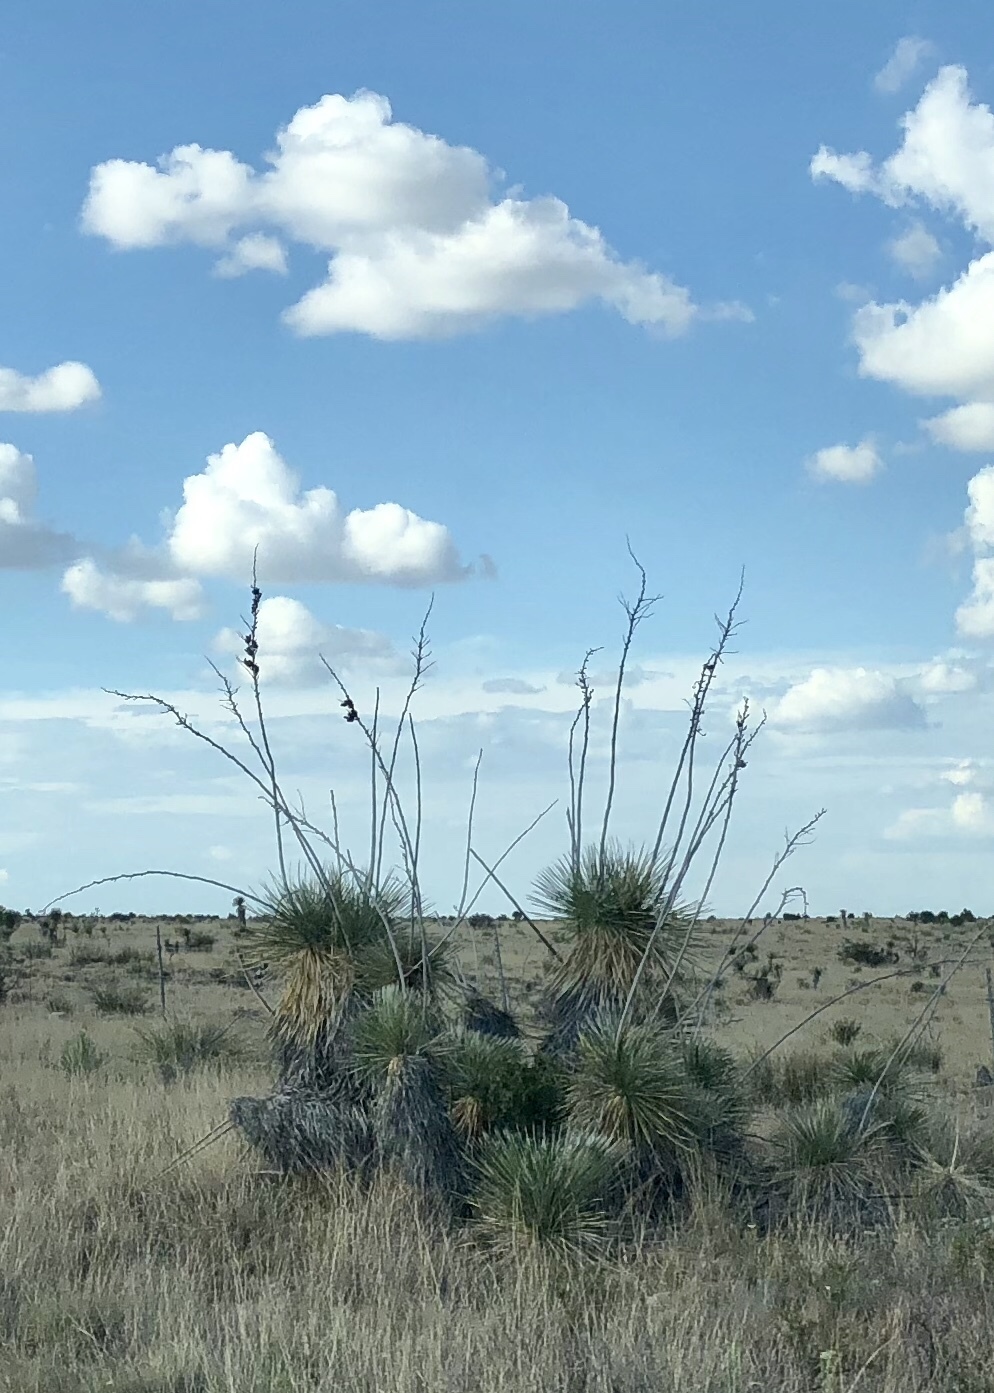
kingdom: Plantae
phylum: Tracheophyta
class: Liliopsida
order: Asparagales
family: Asparagaceae
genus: Yucca
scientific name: Yucca elata
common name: Palmella
